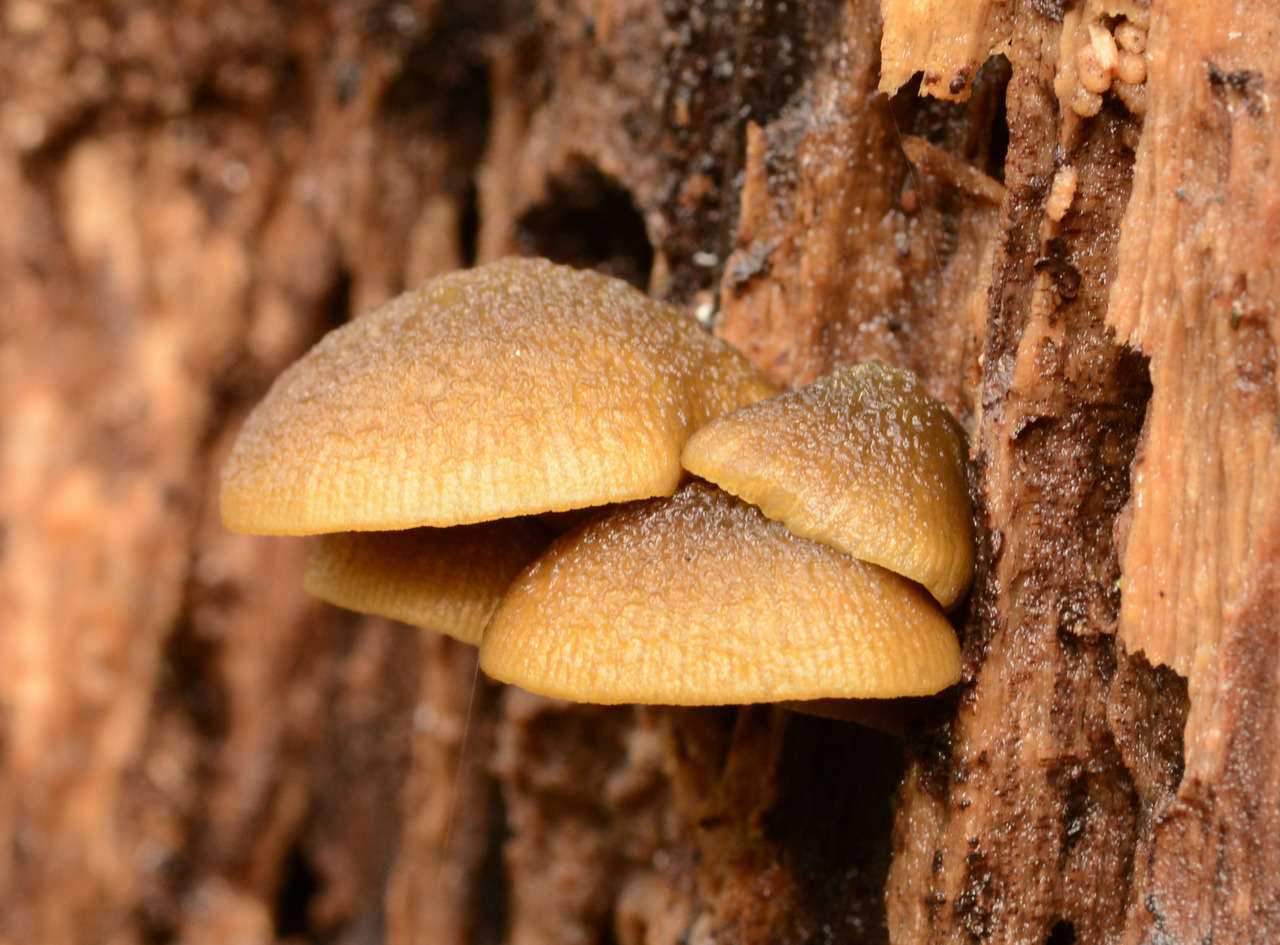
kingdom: Fungi
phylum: Basidiomycota
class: Agaricomycetes
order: Agaricales
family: Crepidotaceae
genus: Simocybe
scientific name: Simocybe phlebophora
